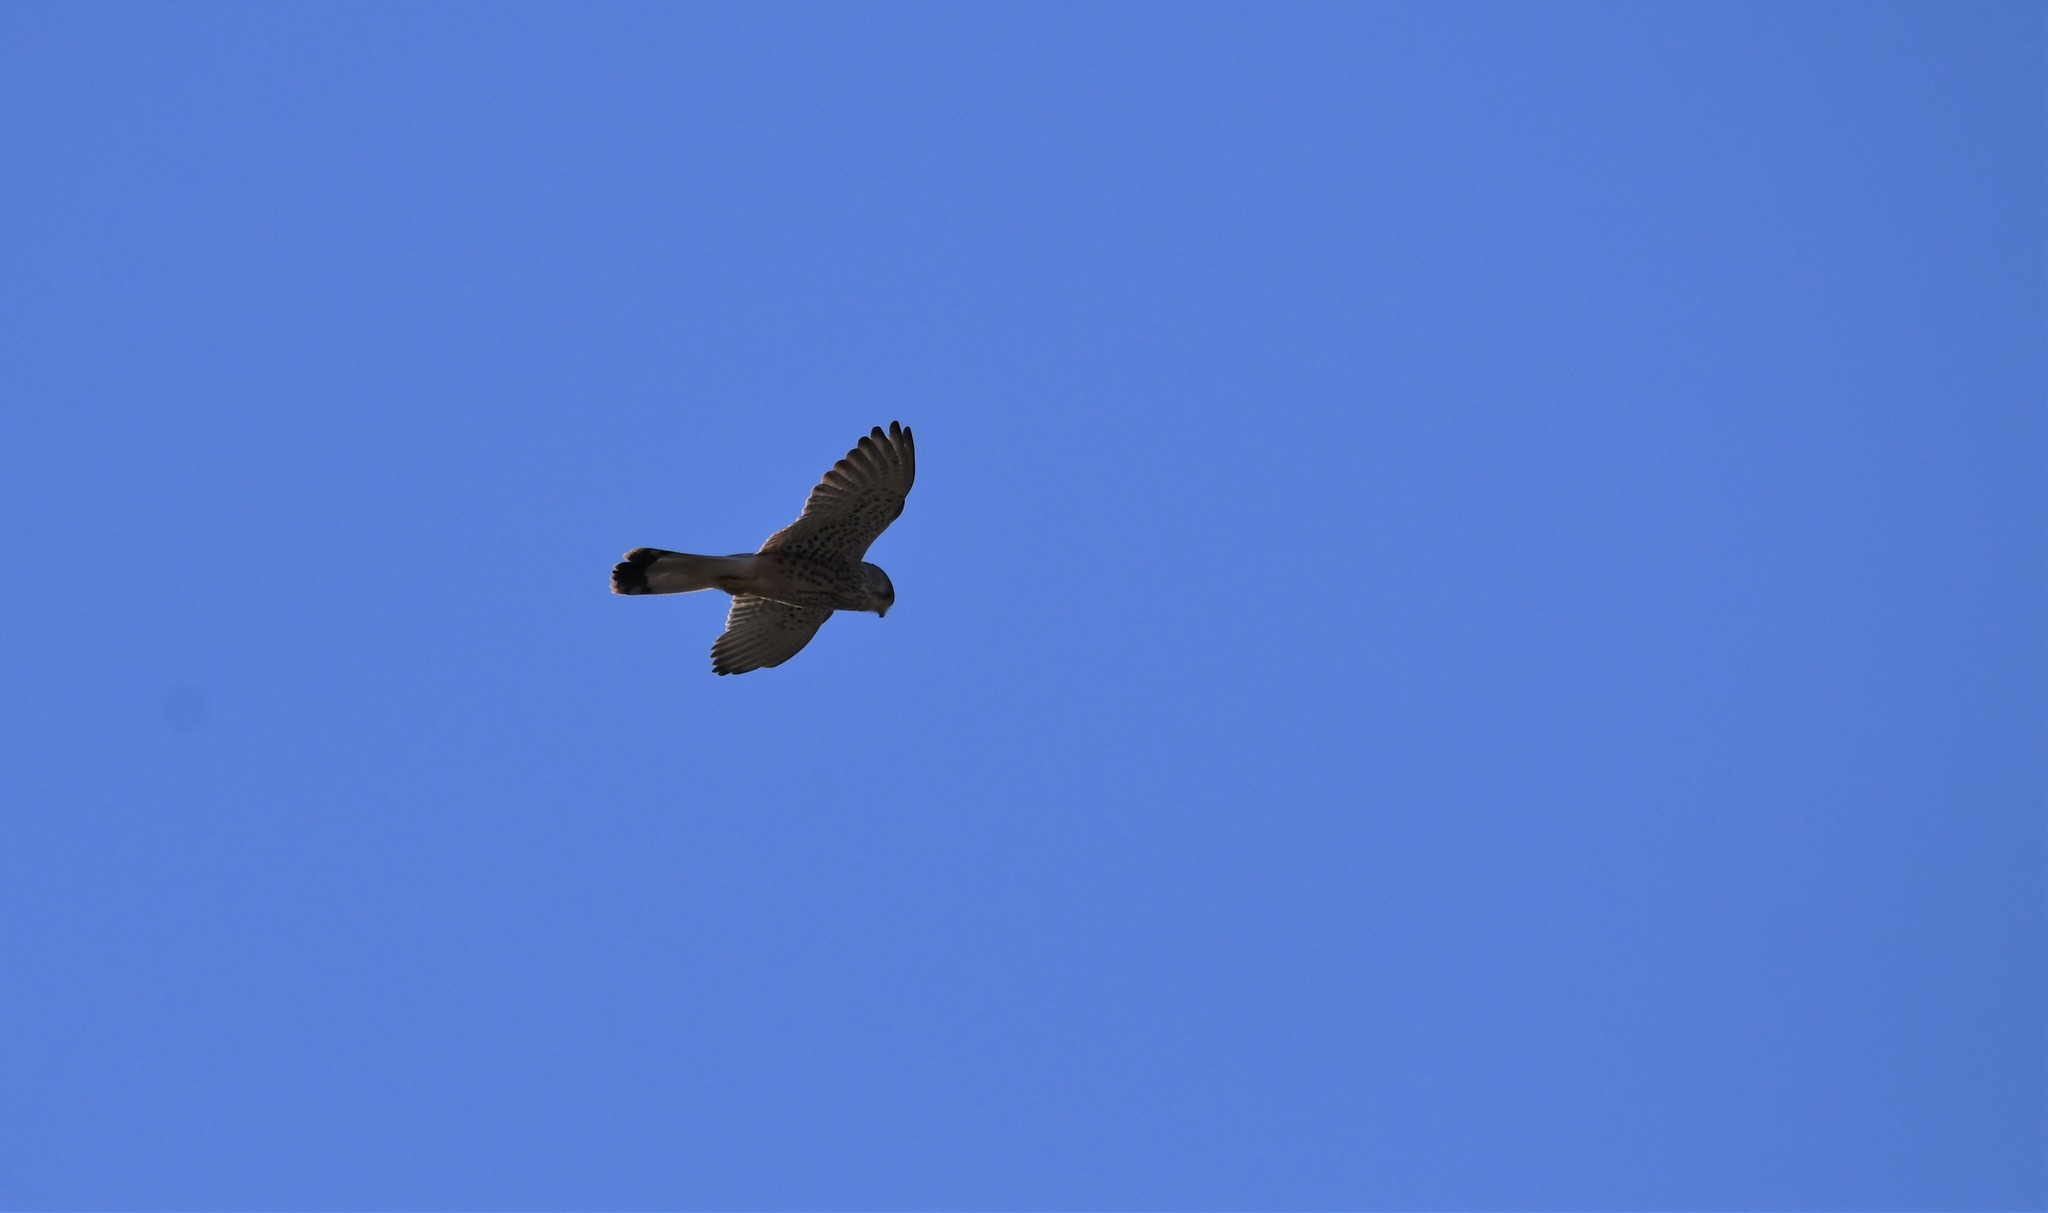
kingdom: Animalia
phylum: Chordata
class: Aves
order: Falconiformes
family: Falconidae
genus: Falco
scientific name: Falco tinnunculus
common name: Common kestrel
